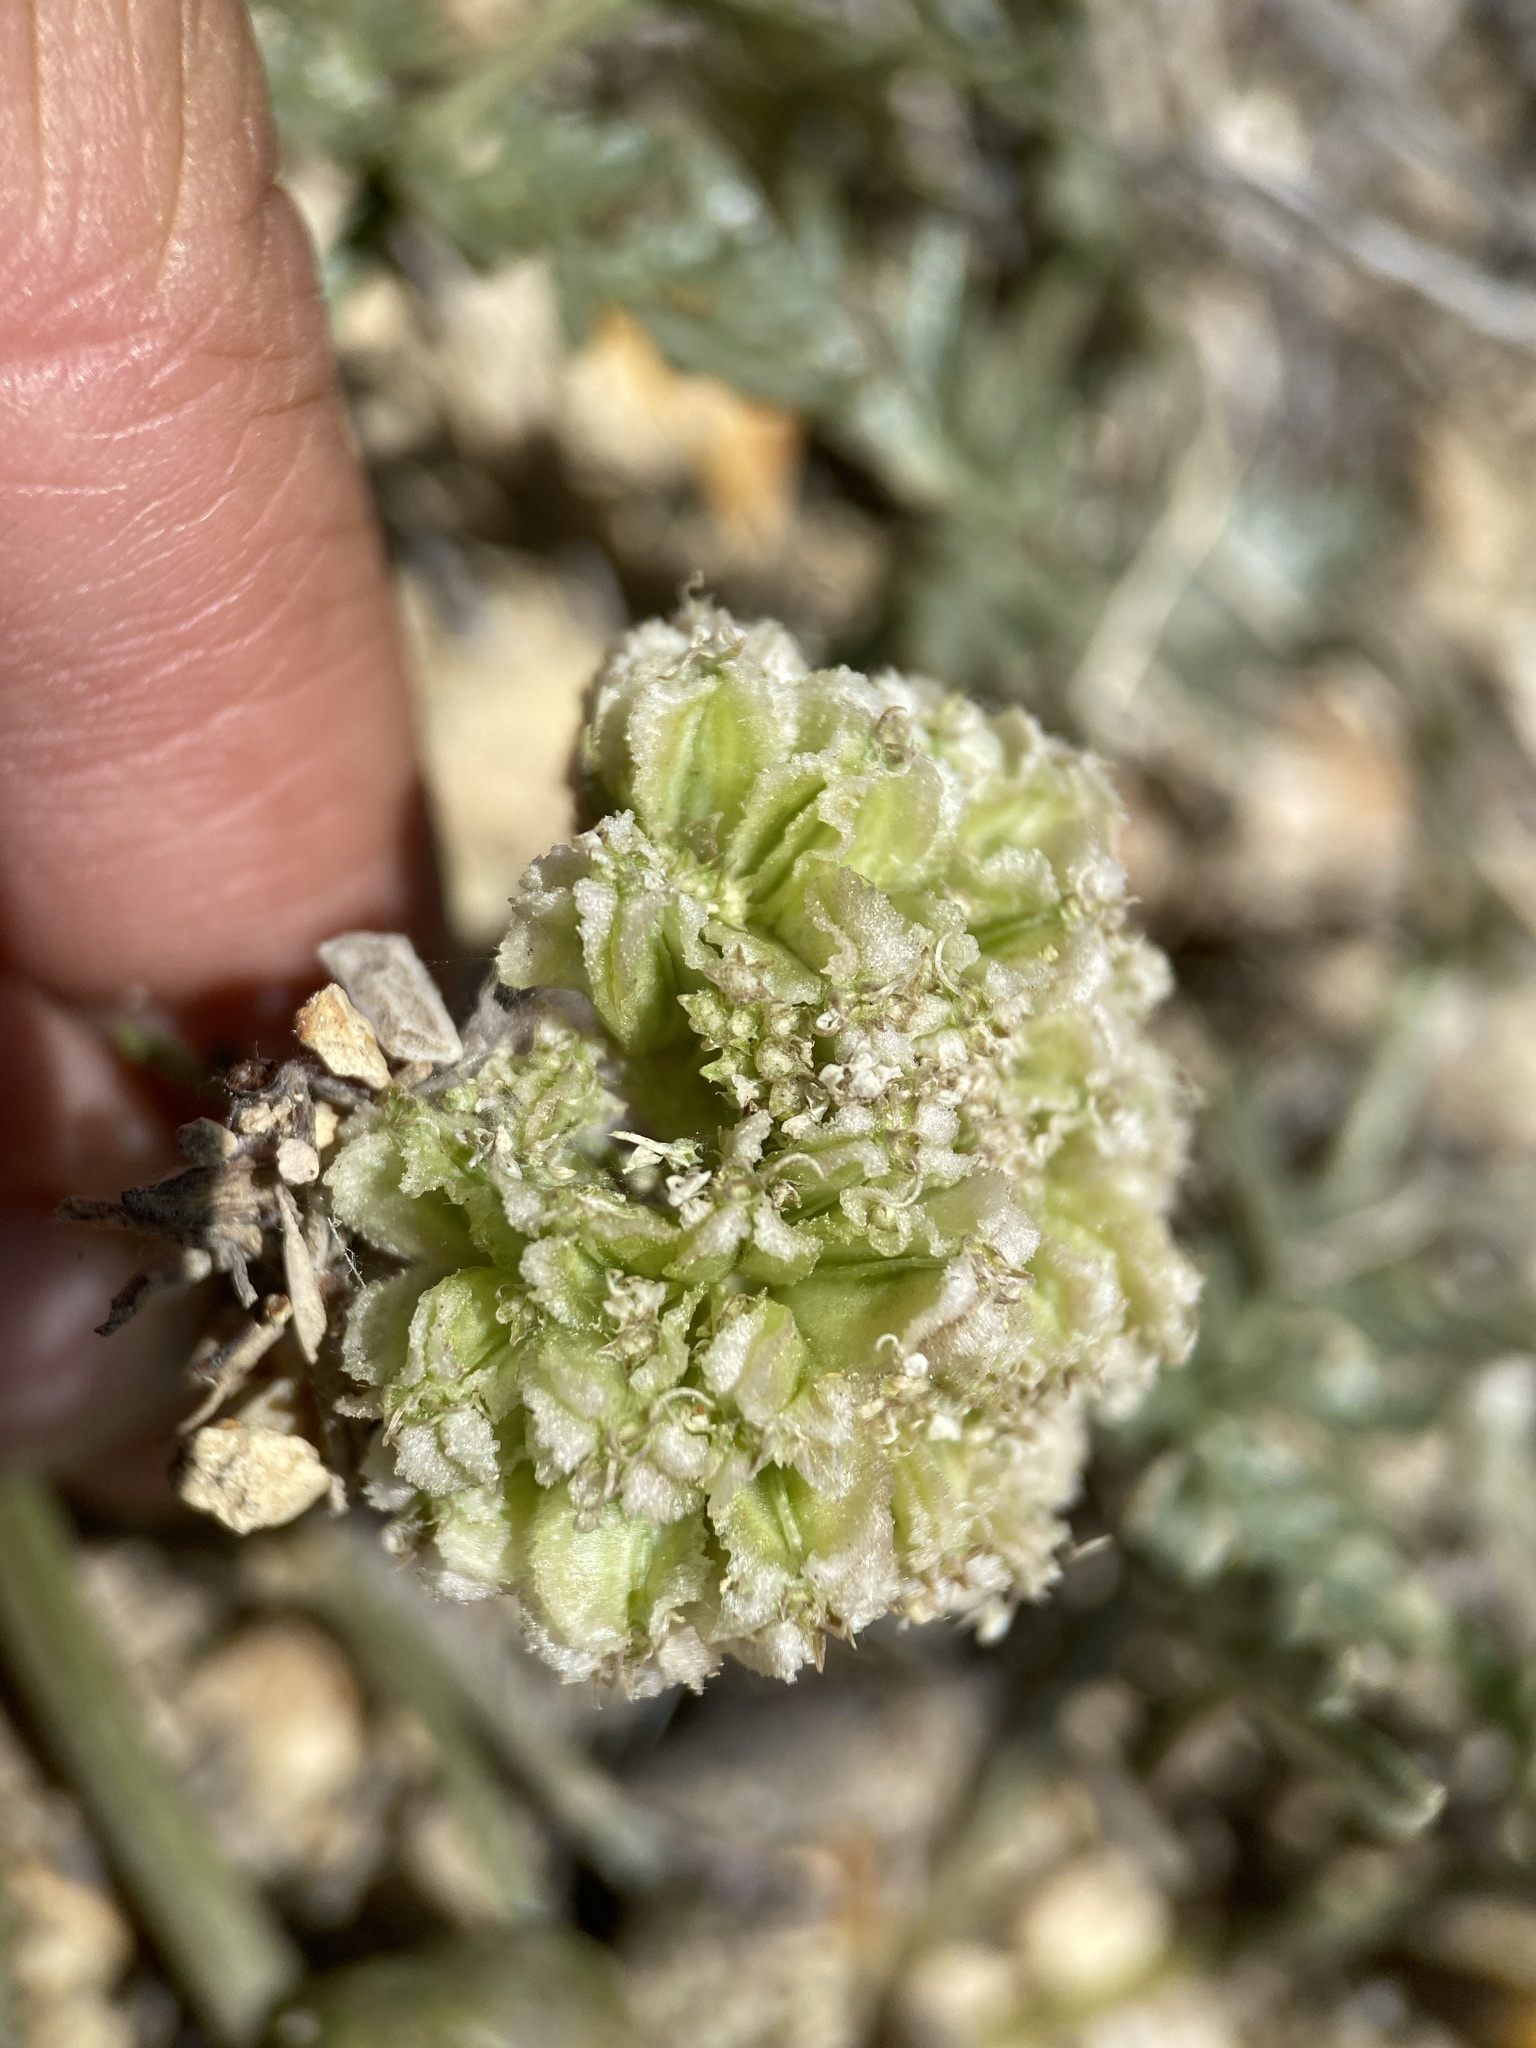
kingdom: Plantae
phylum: Tracheophyta
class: Magnoliopsida
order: Apiales
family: Apiaceae
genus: Cymopterus
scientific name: Cymopterus glomeratus
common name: Plains spring parsley
